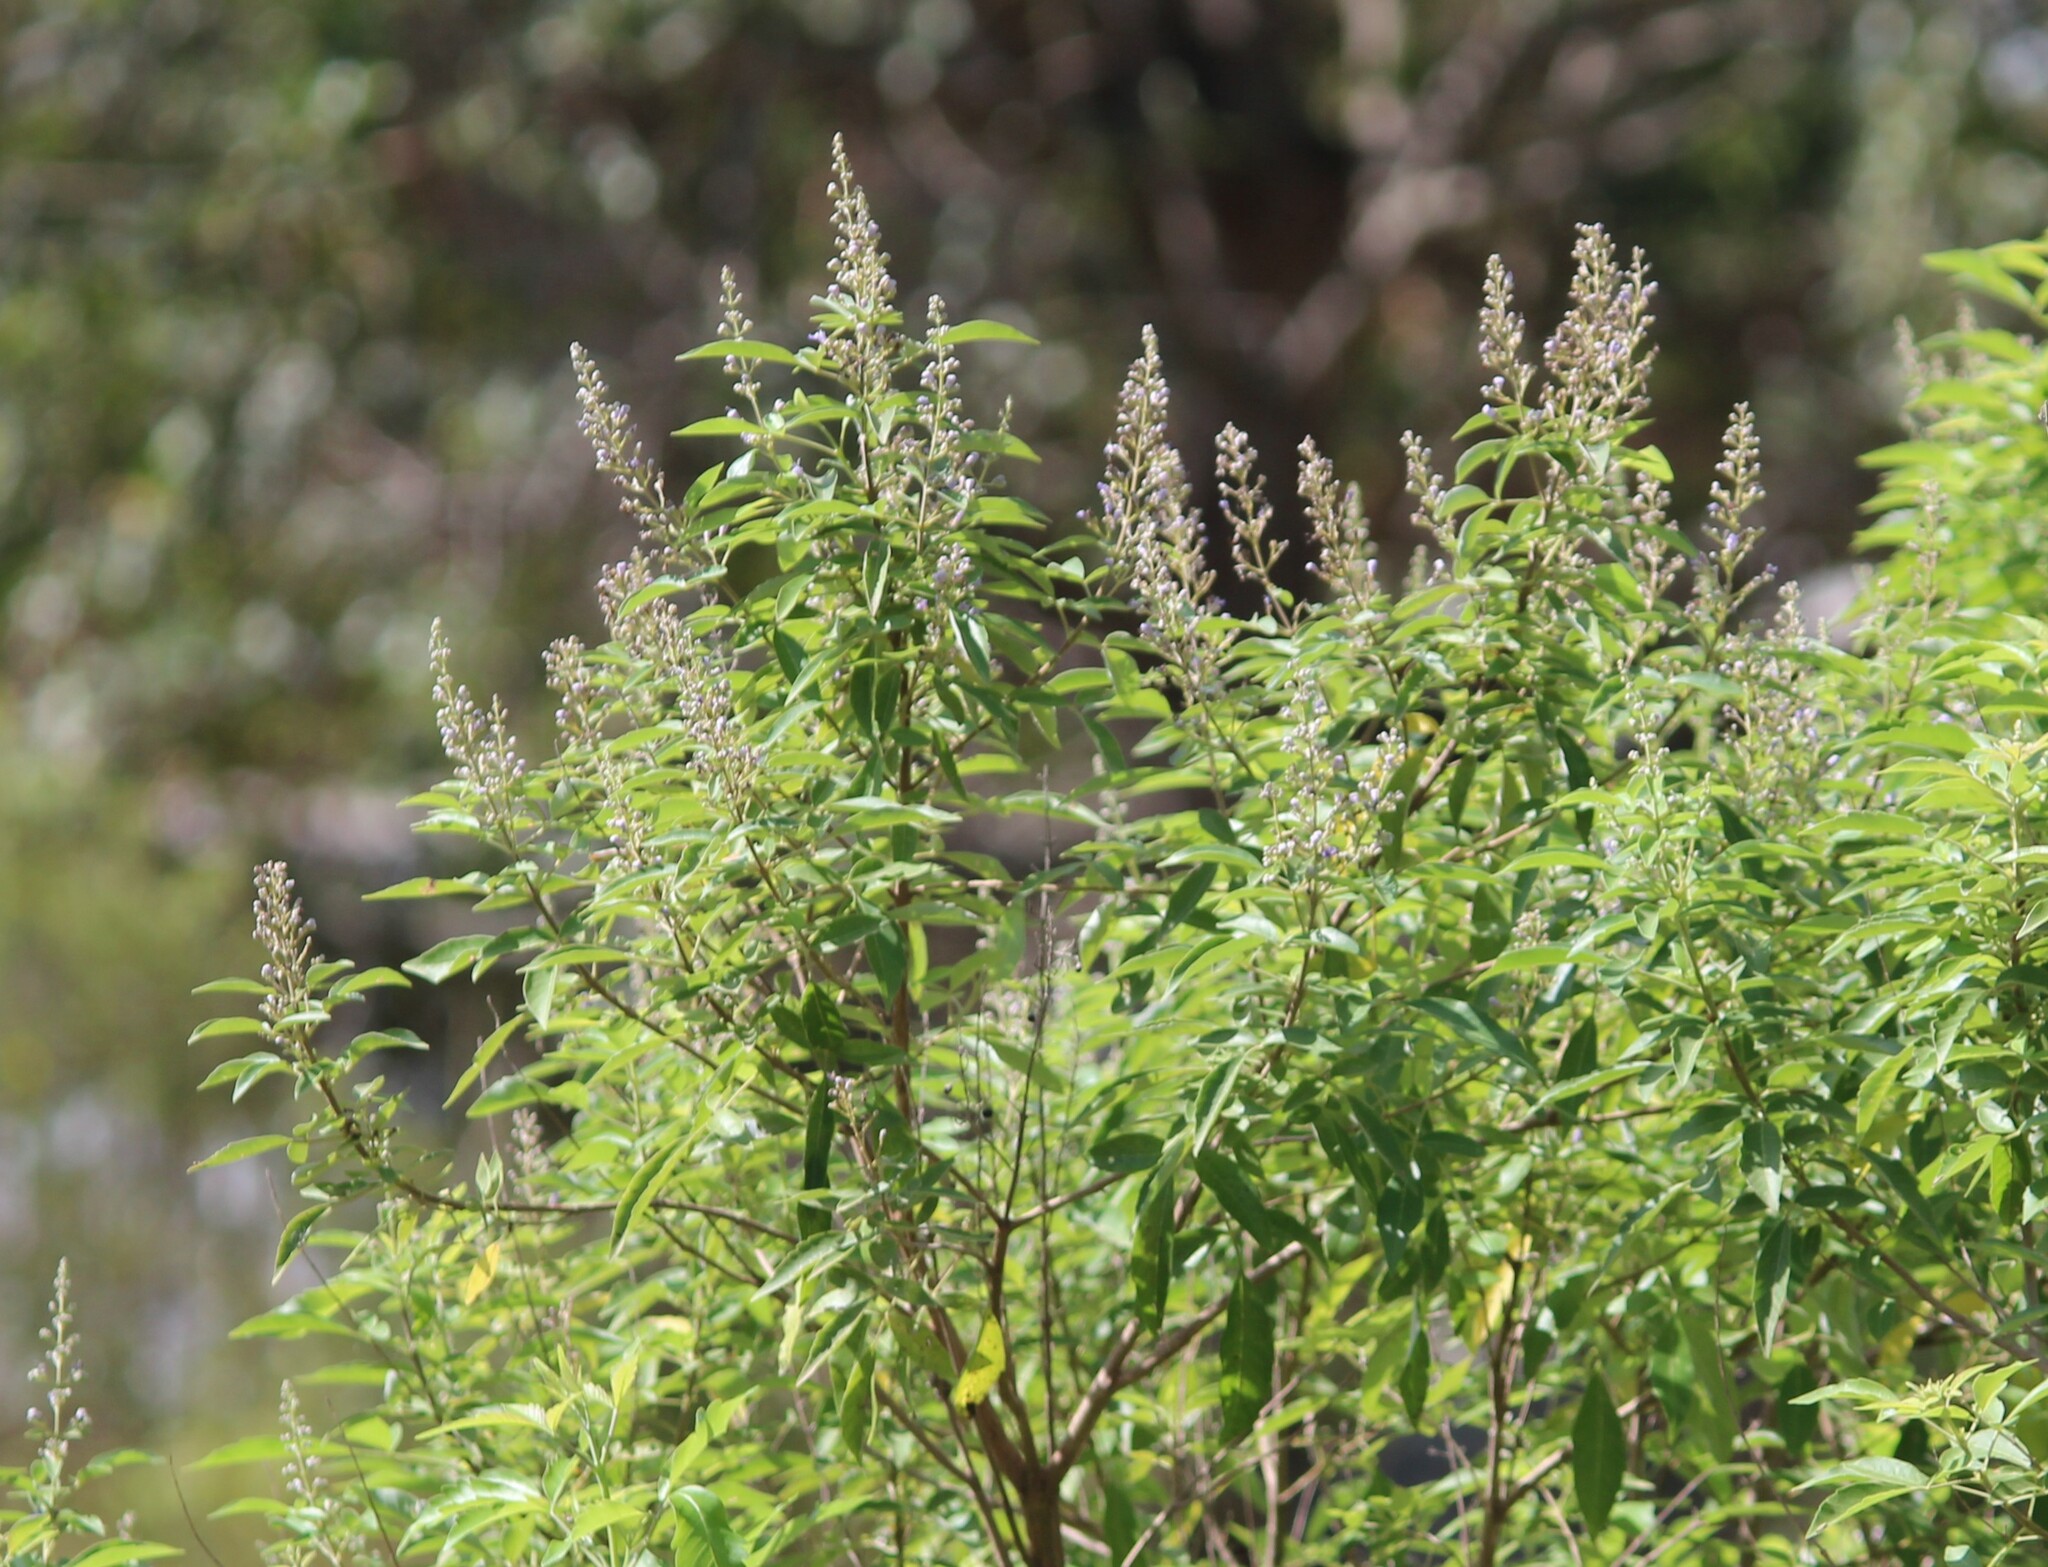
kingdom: Plantae
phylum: Tracheophyta
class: Magnoliopsida
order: Lamiales
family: Lamiaceae
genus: Vitex
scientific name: Vitex negundo
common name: Chinese chastetree
